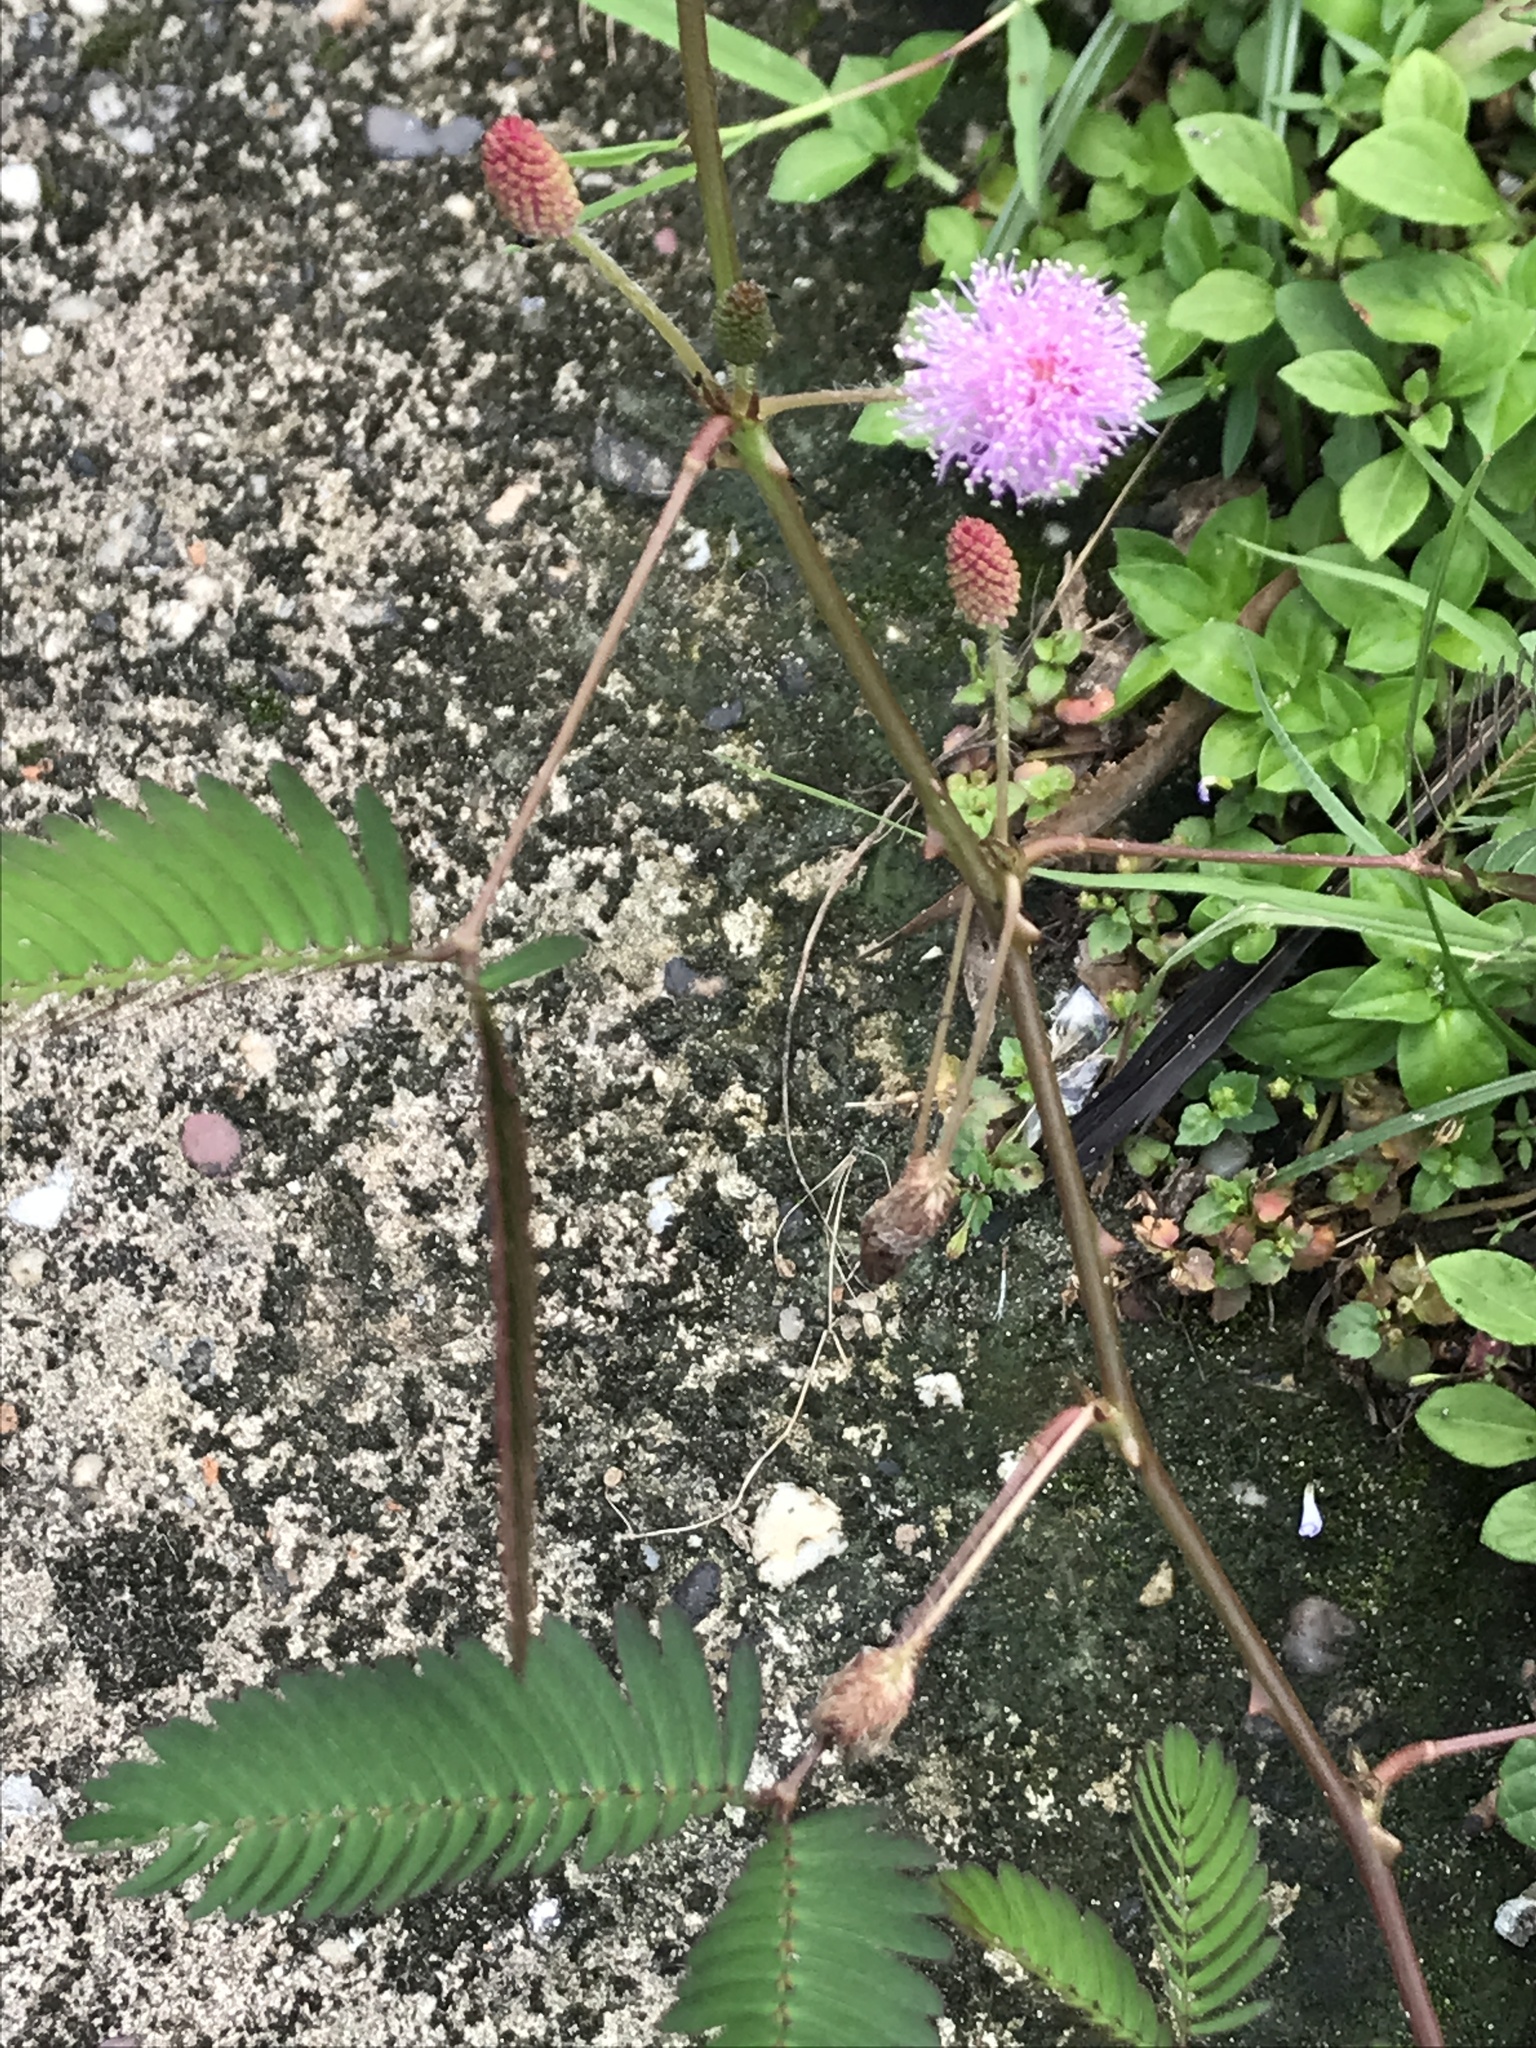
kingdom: Plantae
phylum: Tracheophyta
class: Magnoliopsida
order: Fabales
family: Fabaceae
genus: Mimosa
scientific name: Mimosa pudica
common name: Sensitive plant
